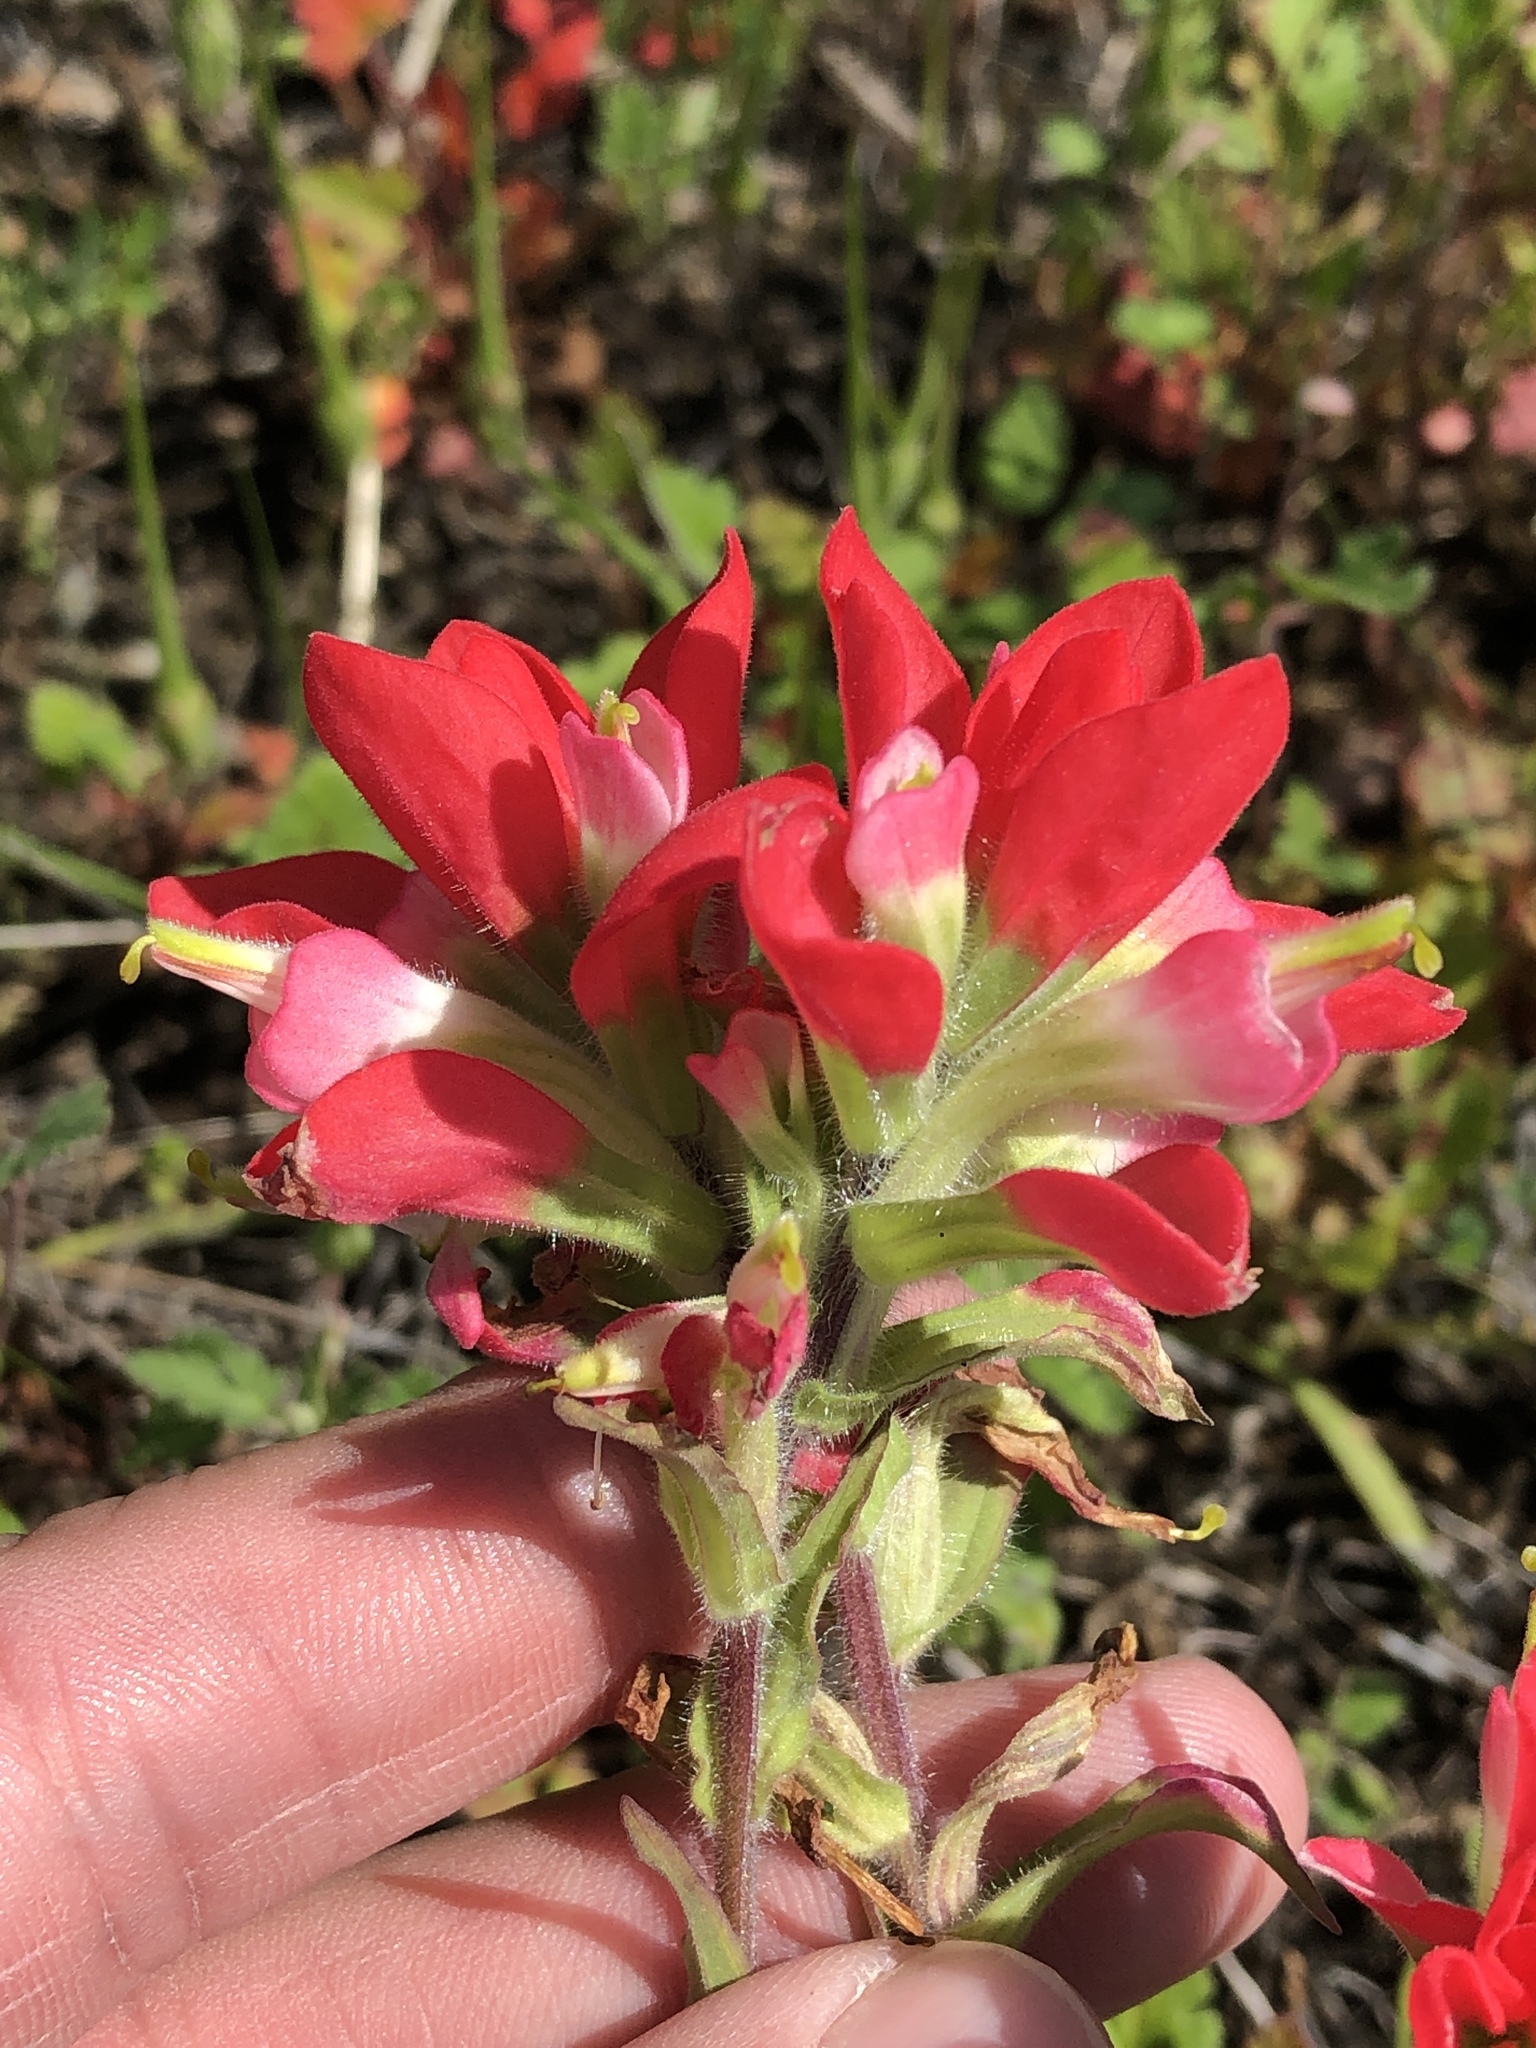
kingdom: Plantae
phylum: Tracheophyta
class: Magnoliopsida
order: Lamiales
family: Orobanchaceae
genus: Castilleja
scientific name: Castilleja indivisa
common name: Texas paintbrush
